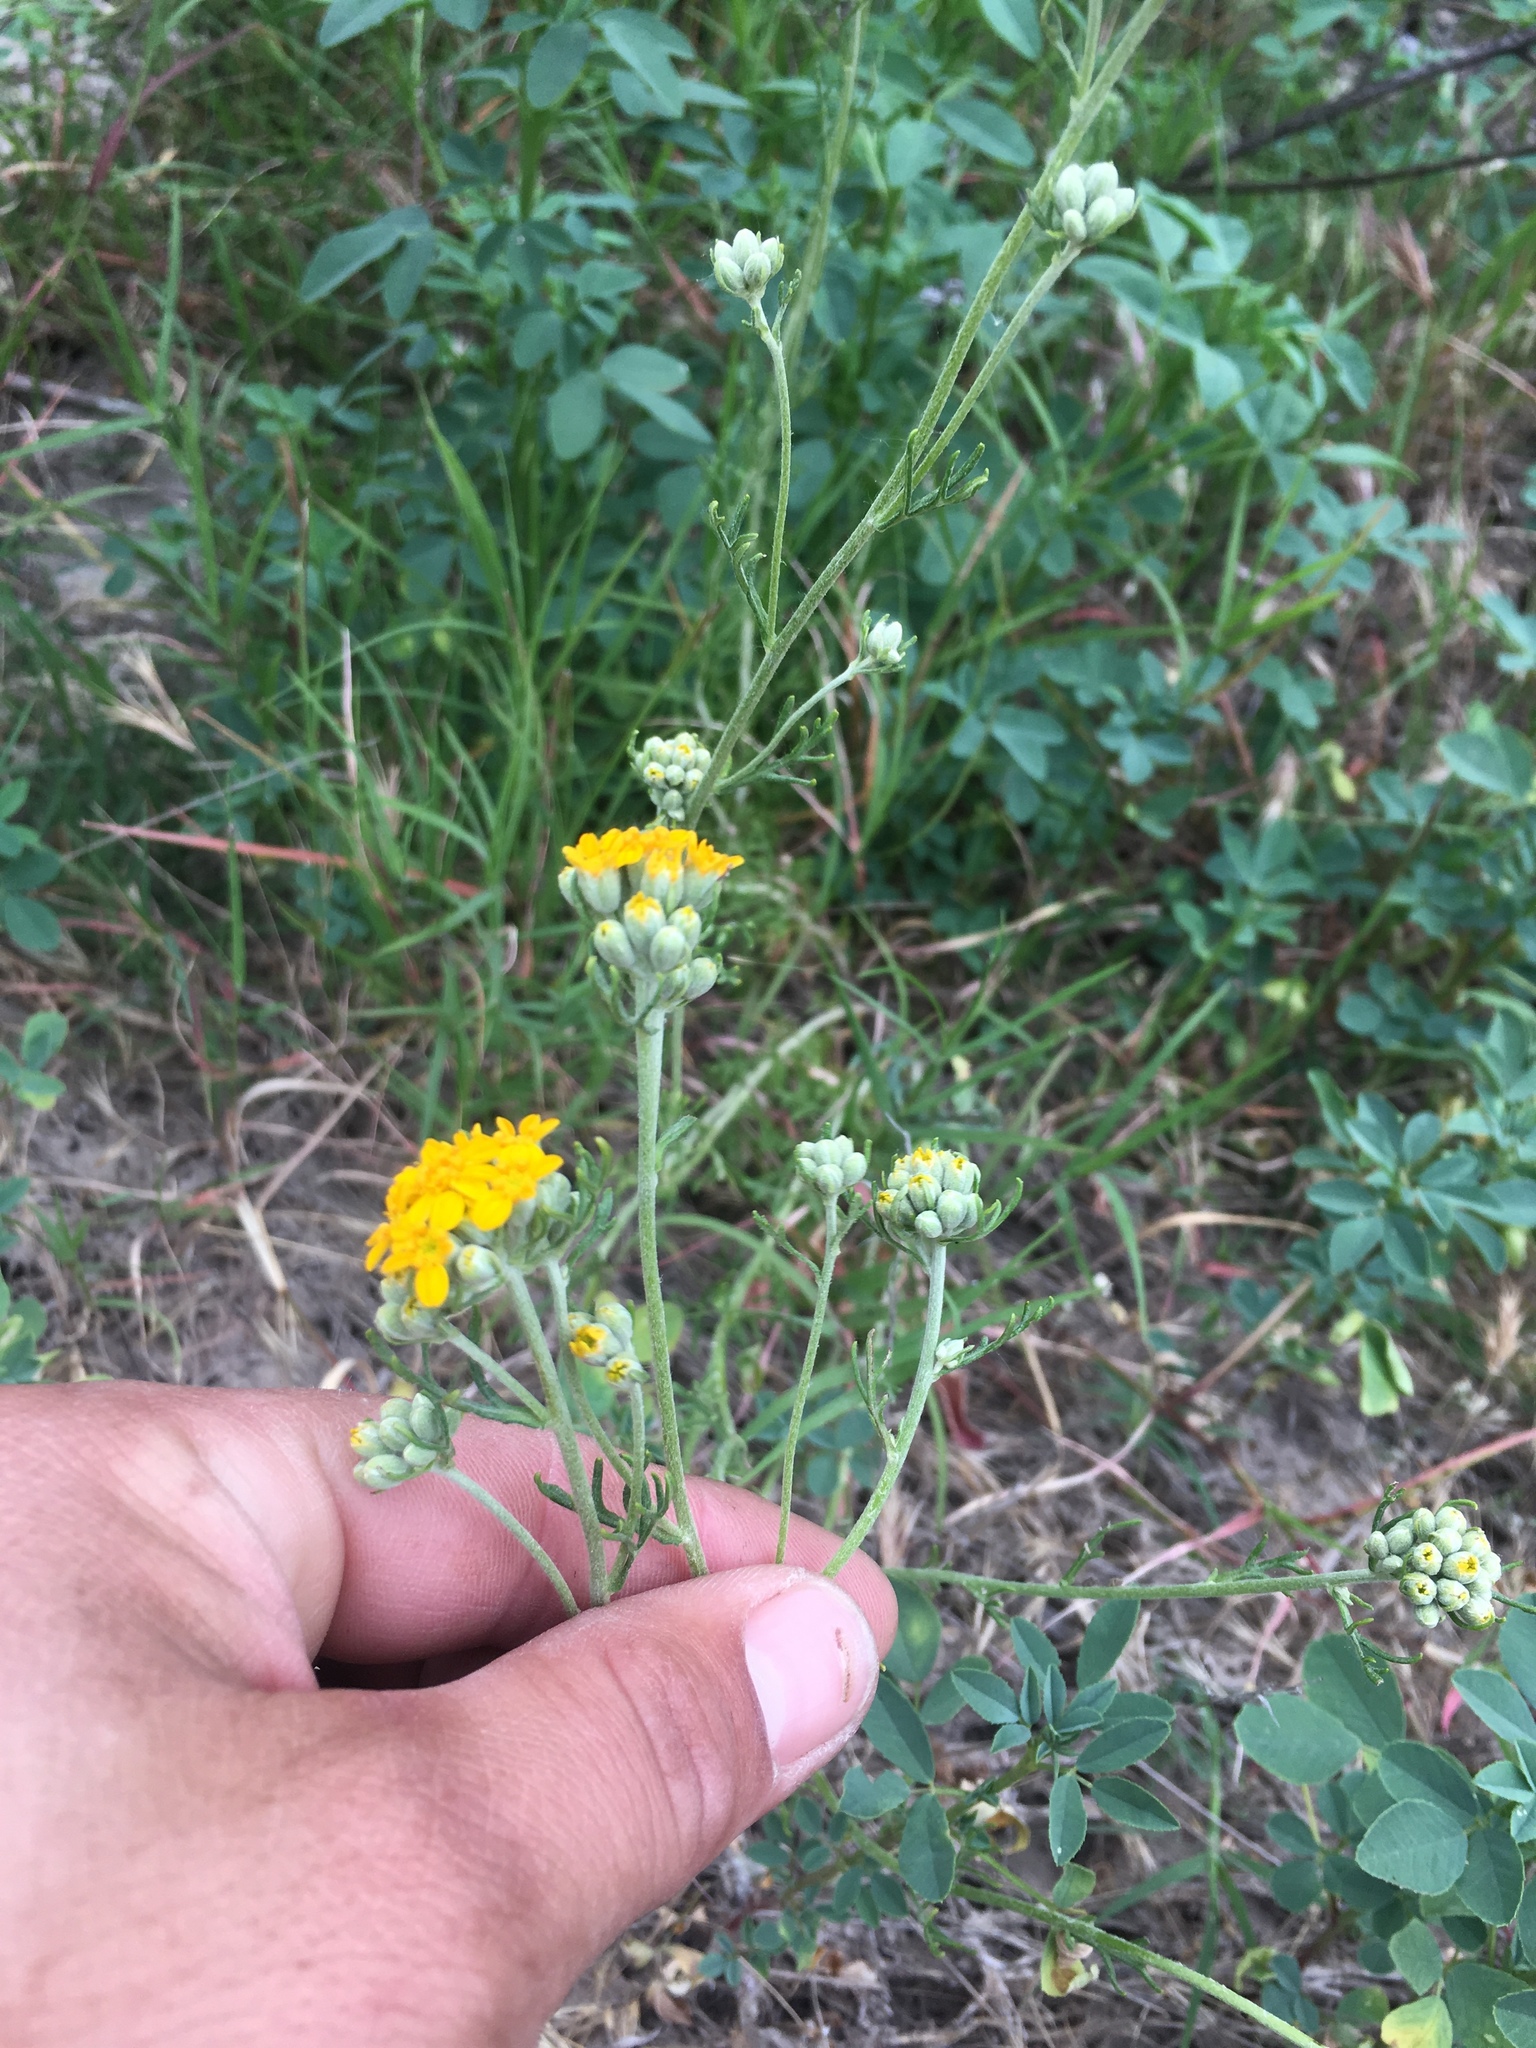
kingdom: Plantae
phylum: Tracheophyta
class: Magnoliopsida
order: Asterales
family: Asteraceae
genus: Eriophyllum
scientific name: Eriophyllum confertiflorum
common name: Golden-yarrow
